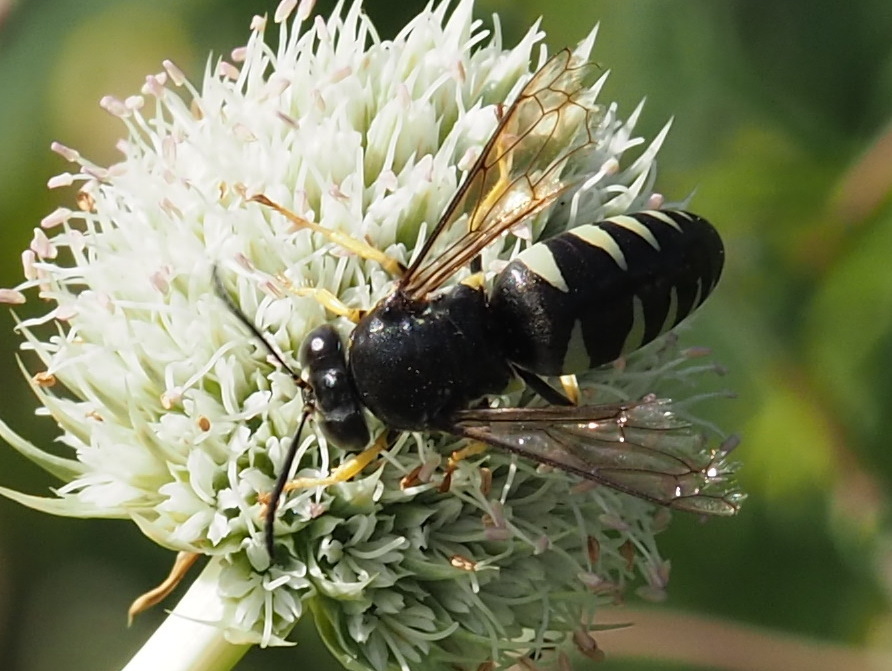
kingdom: Animalia
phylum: Arthropoda
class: Insecta
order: Hymenoptera
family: Crabronidae
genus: Bicyrtes
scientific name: Bicyrtes quadrifasciatus
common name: Four-banded stink bug hunter wasp
